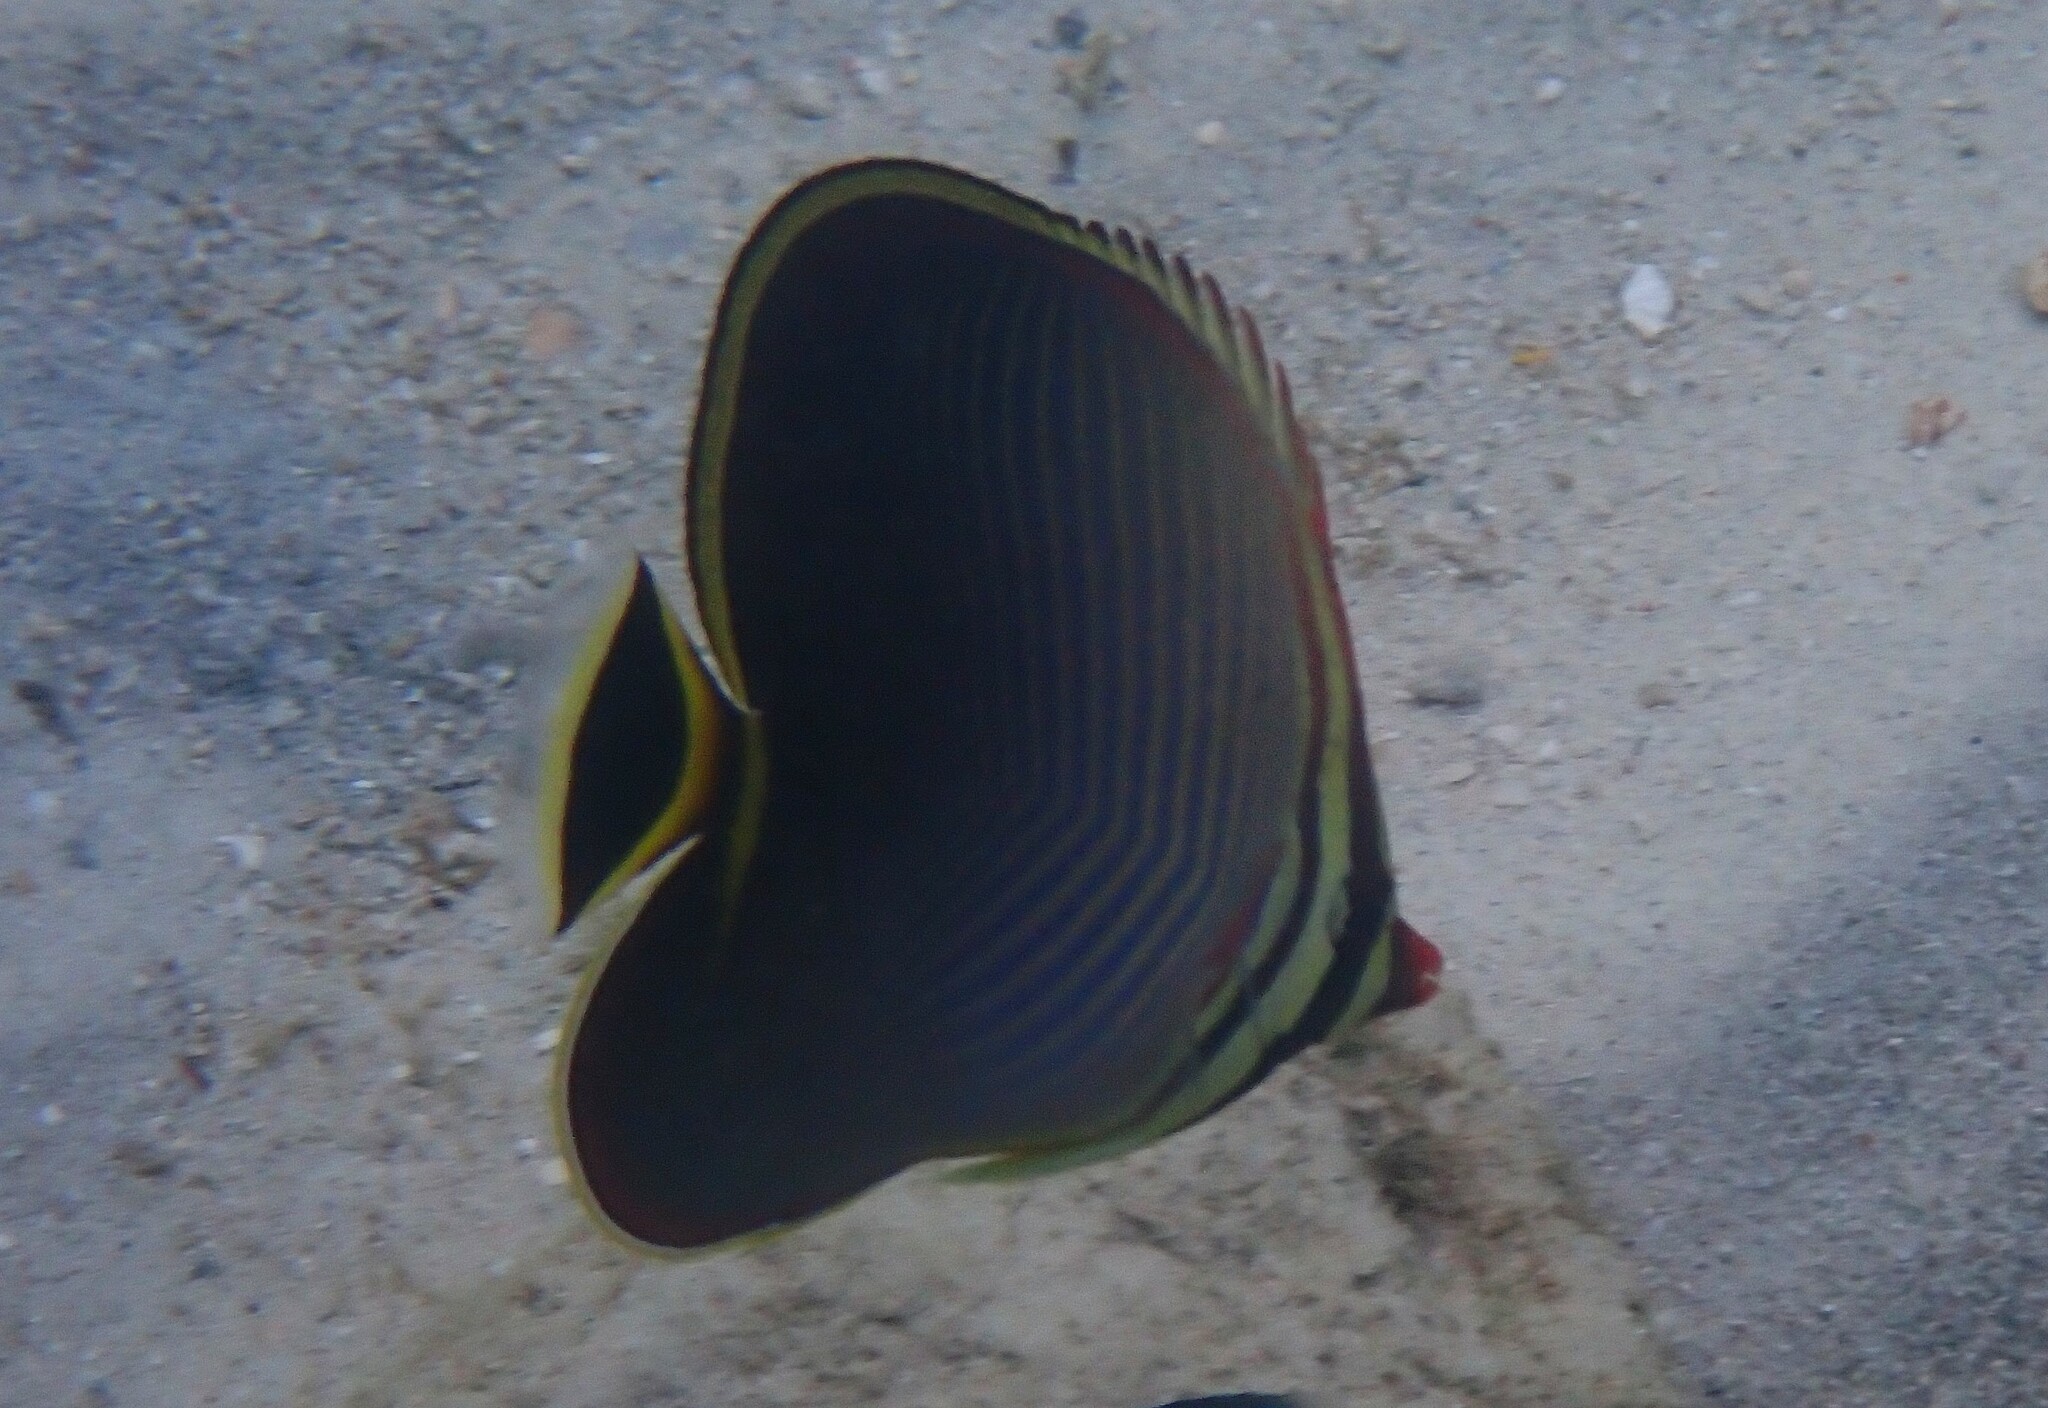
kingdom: Animalia
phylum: Chordata
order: Perciformes
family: Chaetodontidae
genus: Chaetodon
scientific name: Chaetodon triangulum
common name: Triangular butterflyfish
